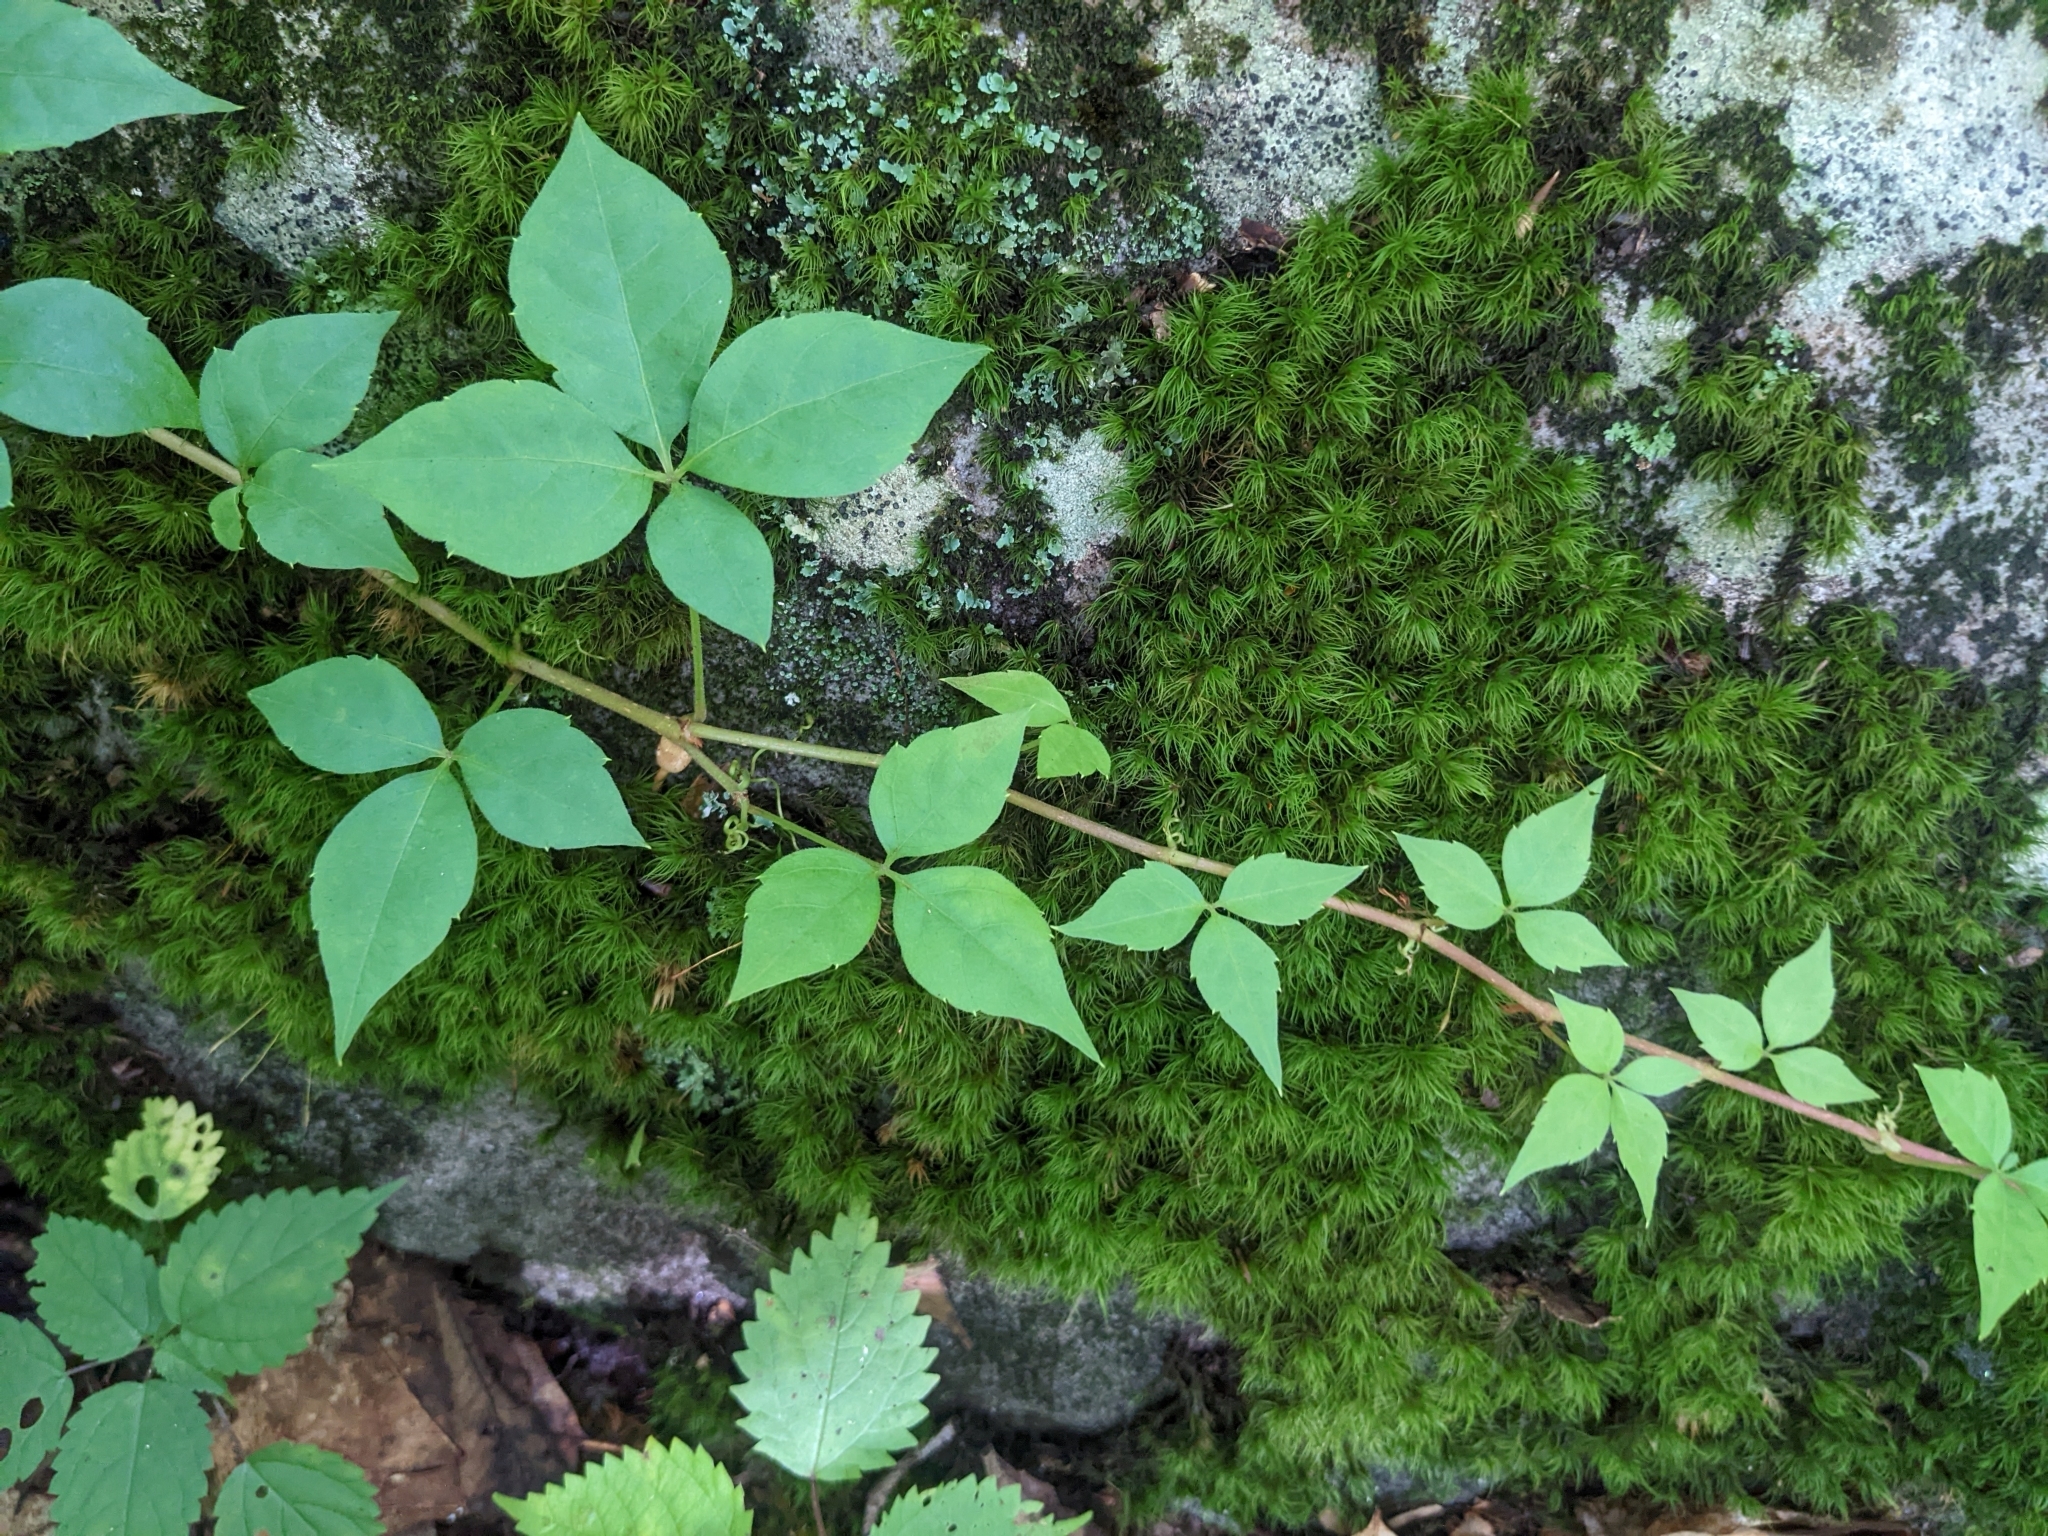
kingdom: Plantae
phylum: Tracheophyta
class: Magnoliopsida
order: Vitales
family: Vitaceae
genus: Parthenocissus
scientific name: Parthenocissus quinquefolia
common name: Virginia-creeper
